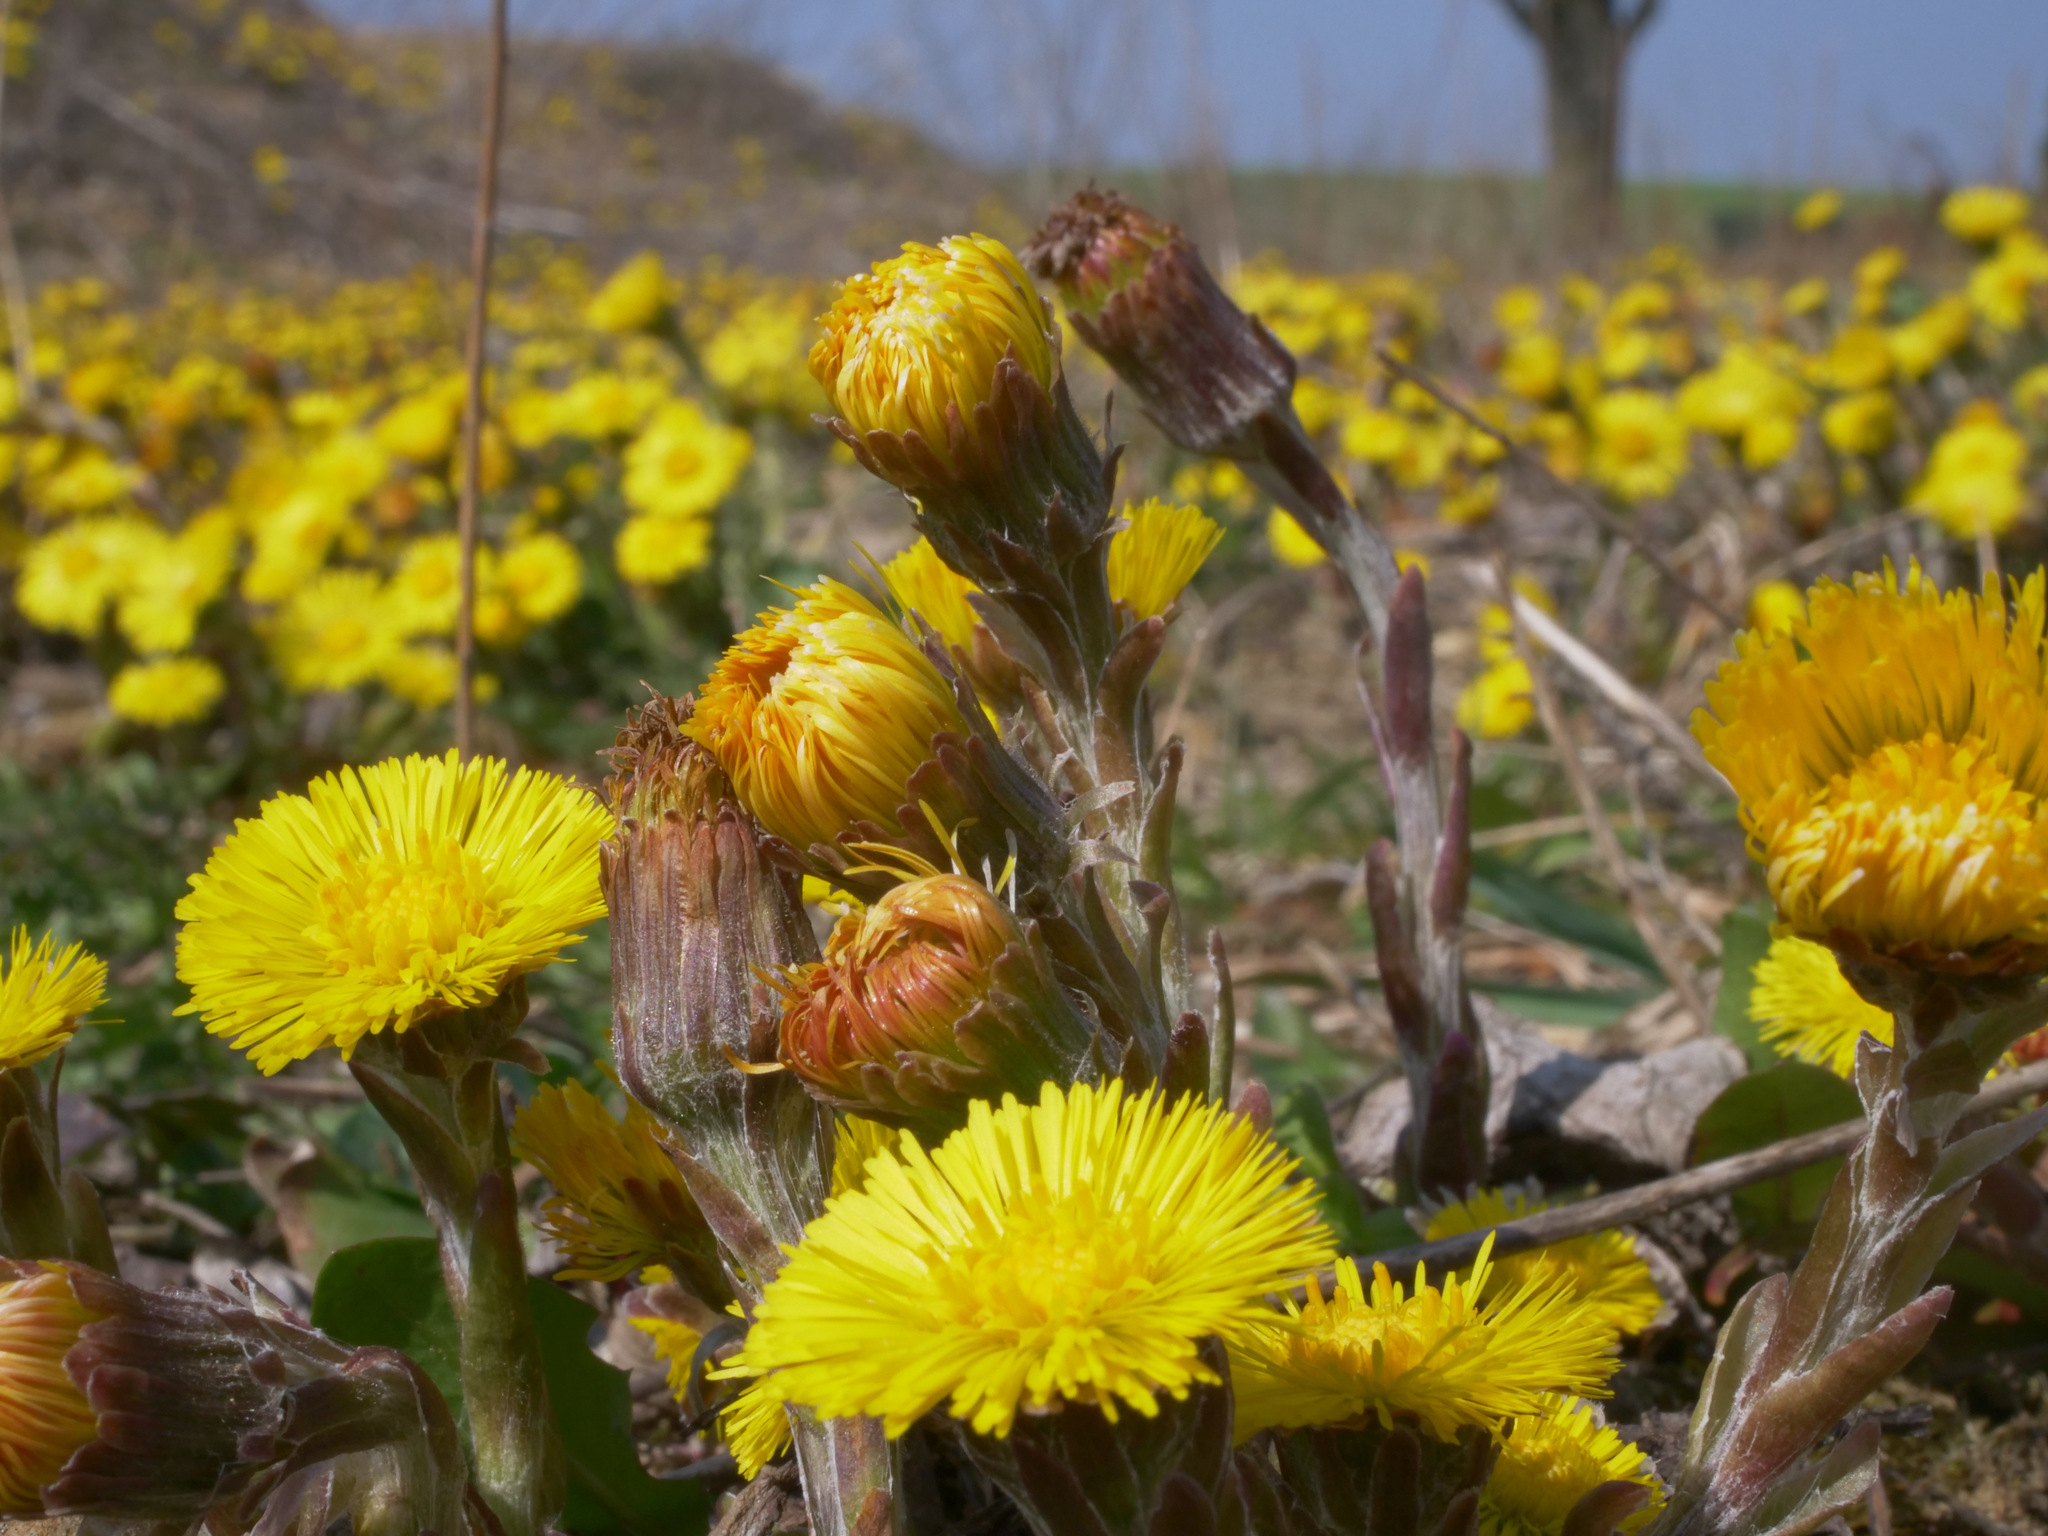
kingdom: Plantae
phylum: Tracheophyta
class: Magnoliopsida
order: Asterales
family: Asteraceae
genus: Tussilago
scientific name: Tussilago farfara
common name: Coltsfoot
